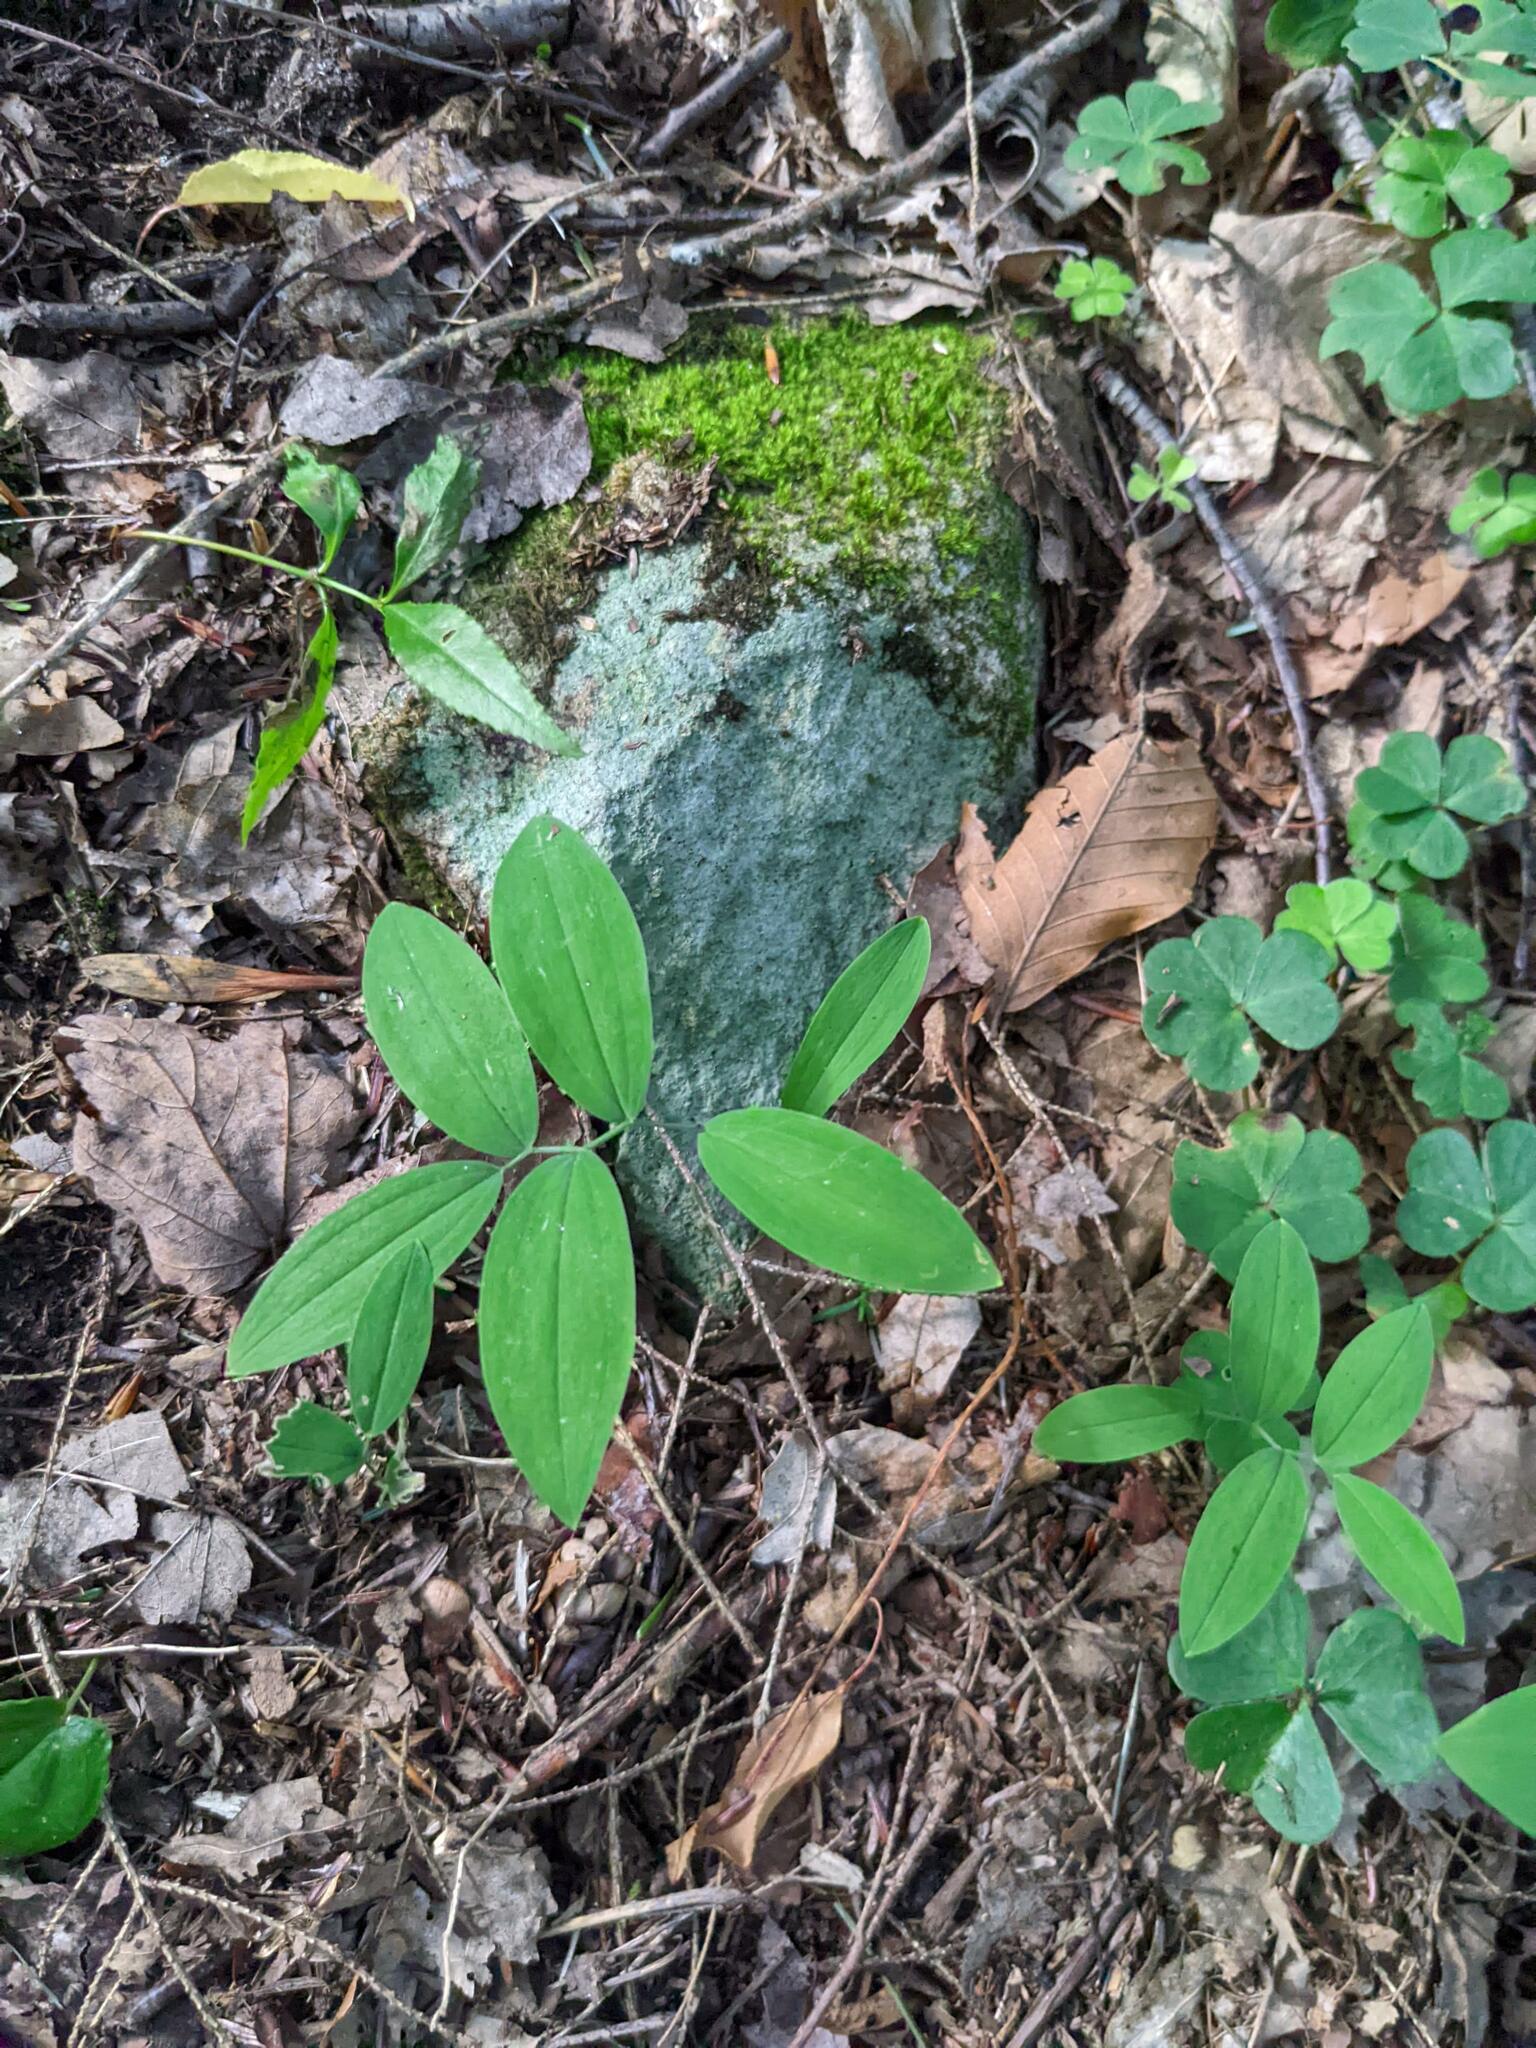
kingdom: Plantae
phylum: Tracheophyta
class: Liliopsida
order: Liliales
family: Colchicaceae
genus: Uvularia
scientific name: Uvularia sessilifolia
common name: Straw-lily
